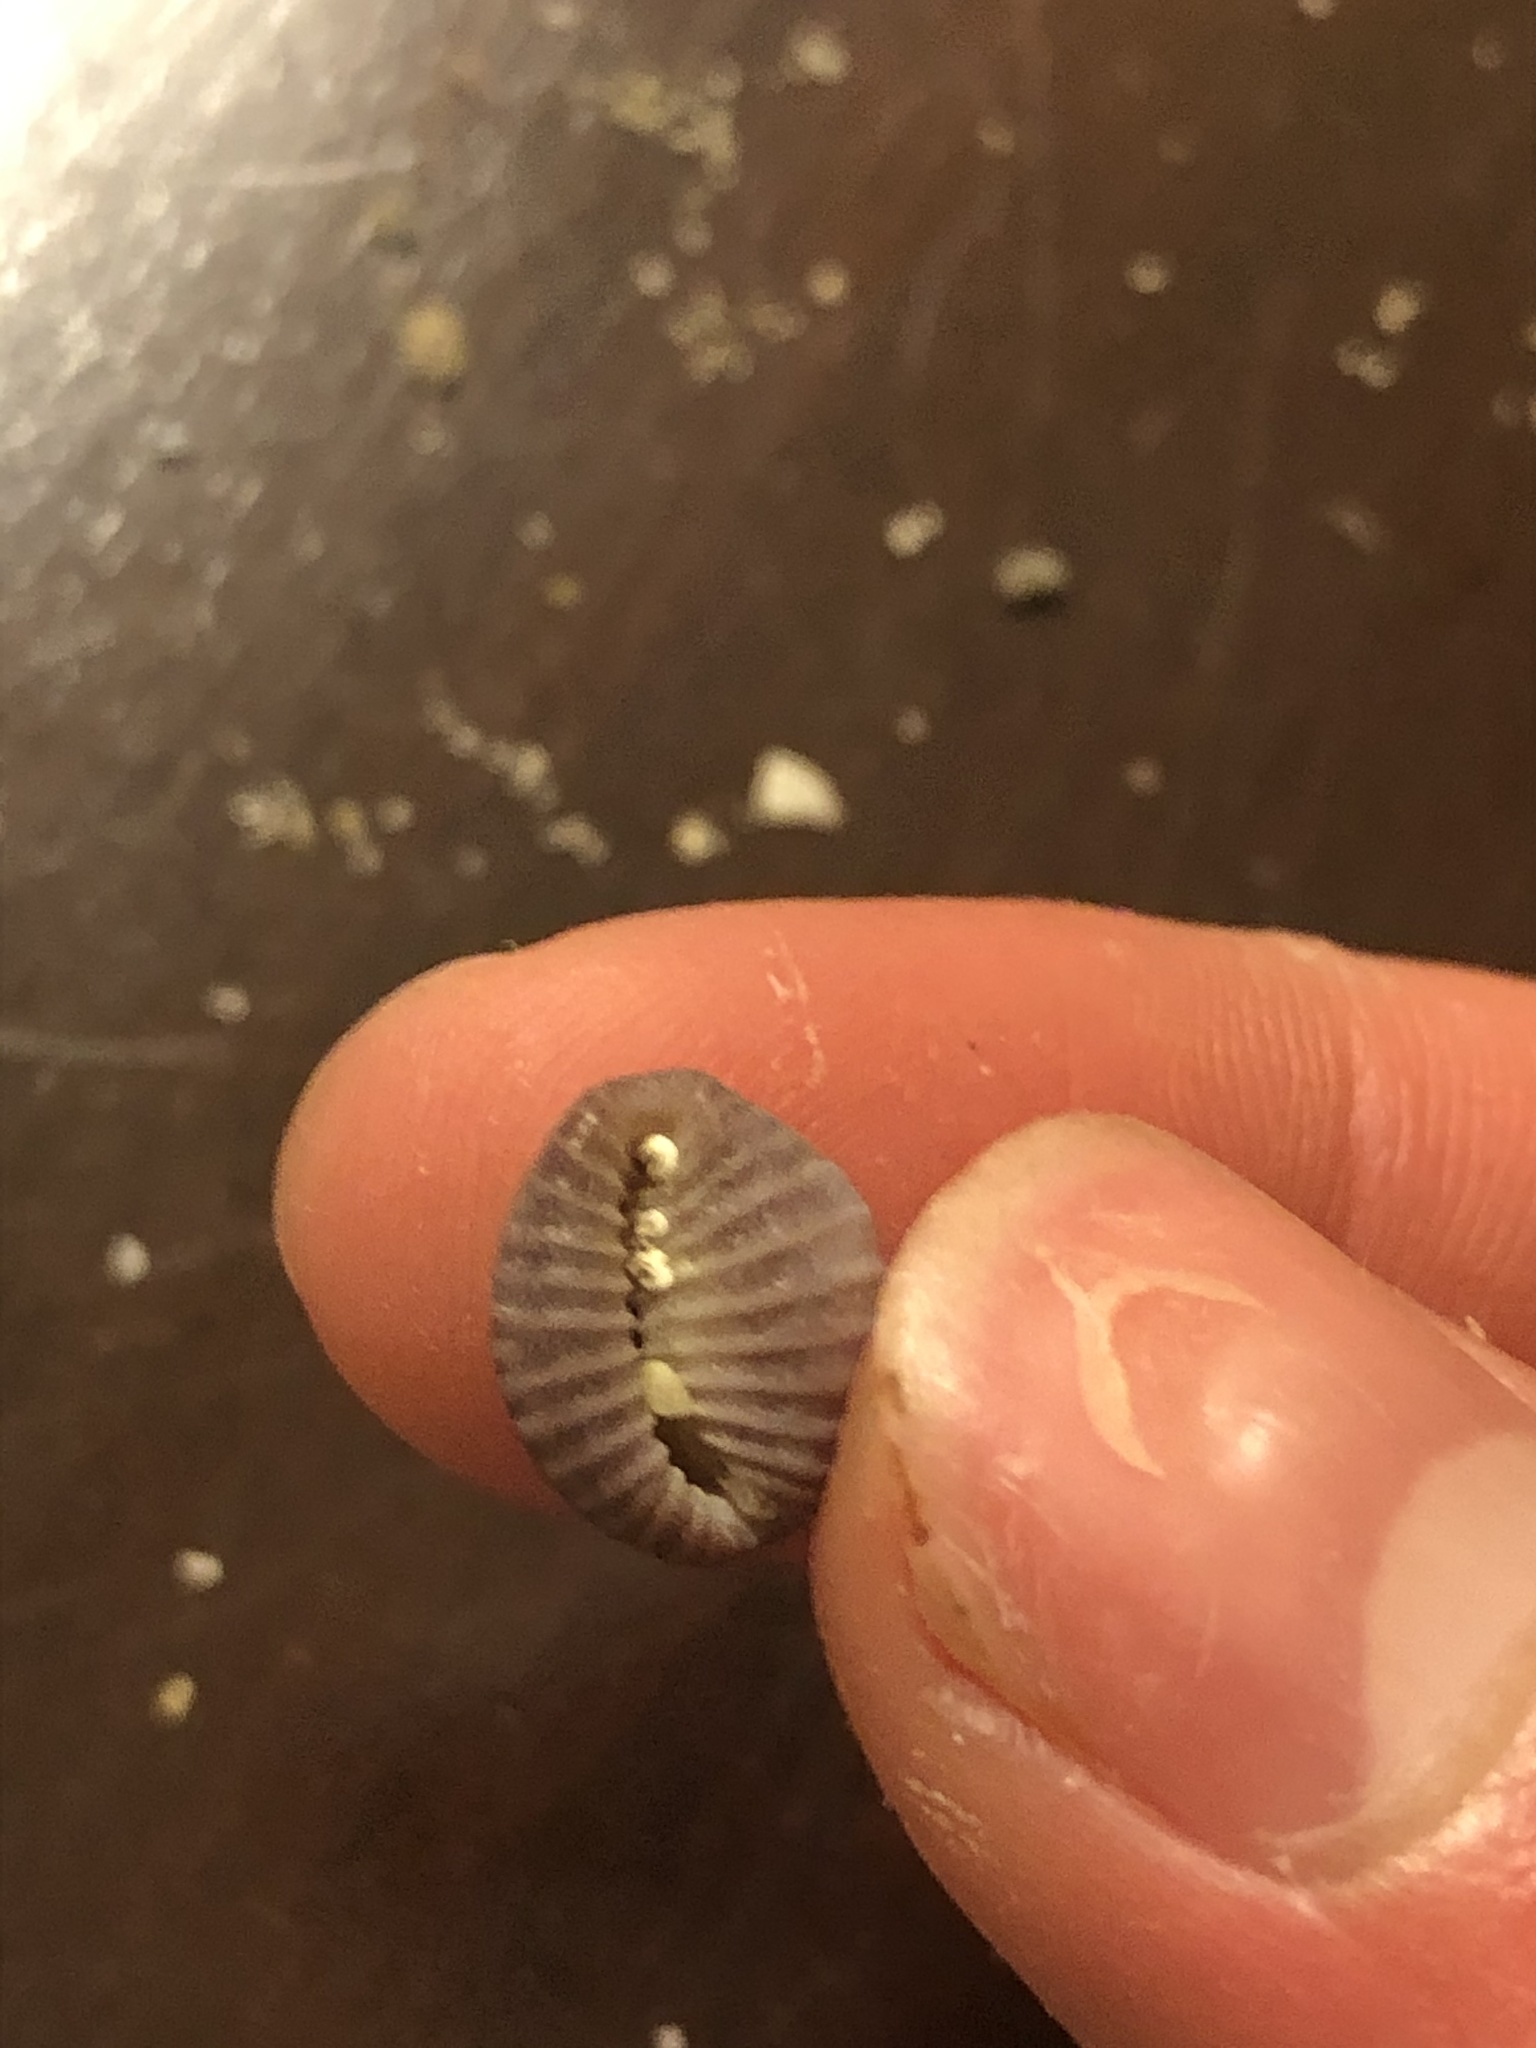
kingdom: Animalia
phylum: Mollusca
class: Gastropoda
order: Littorinimorpha
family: Triviidae
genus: Pseudopusula
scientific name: Pseudopusula californiana
